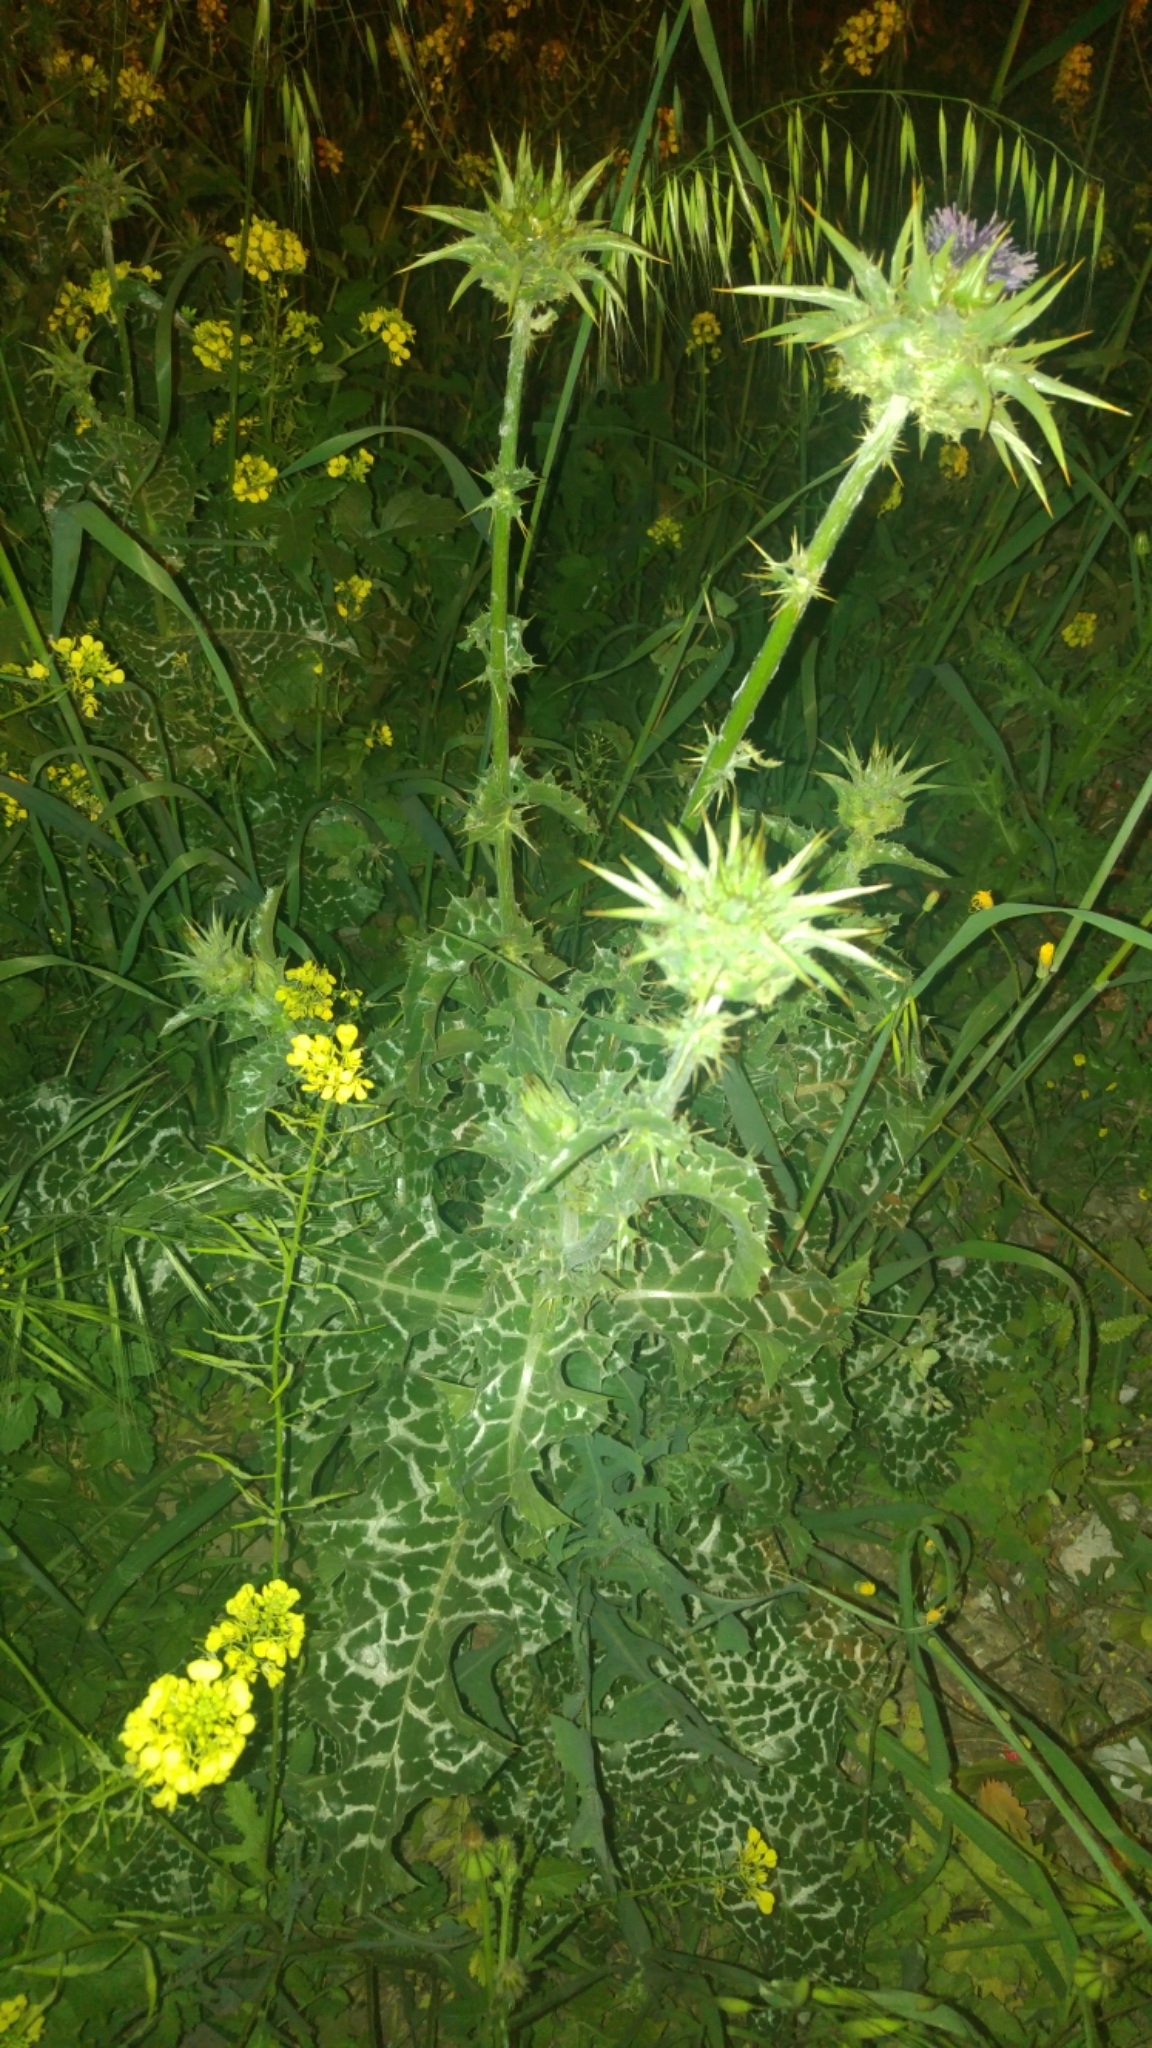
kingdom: Plantae
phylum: Tracheophyta
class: Magnoliopsida
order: Asterales
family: Asteraceae
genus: Silybum
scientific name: Silybum marianum
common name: Milk thistle
